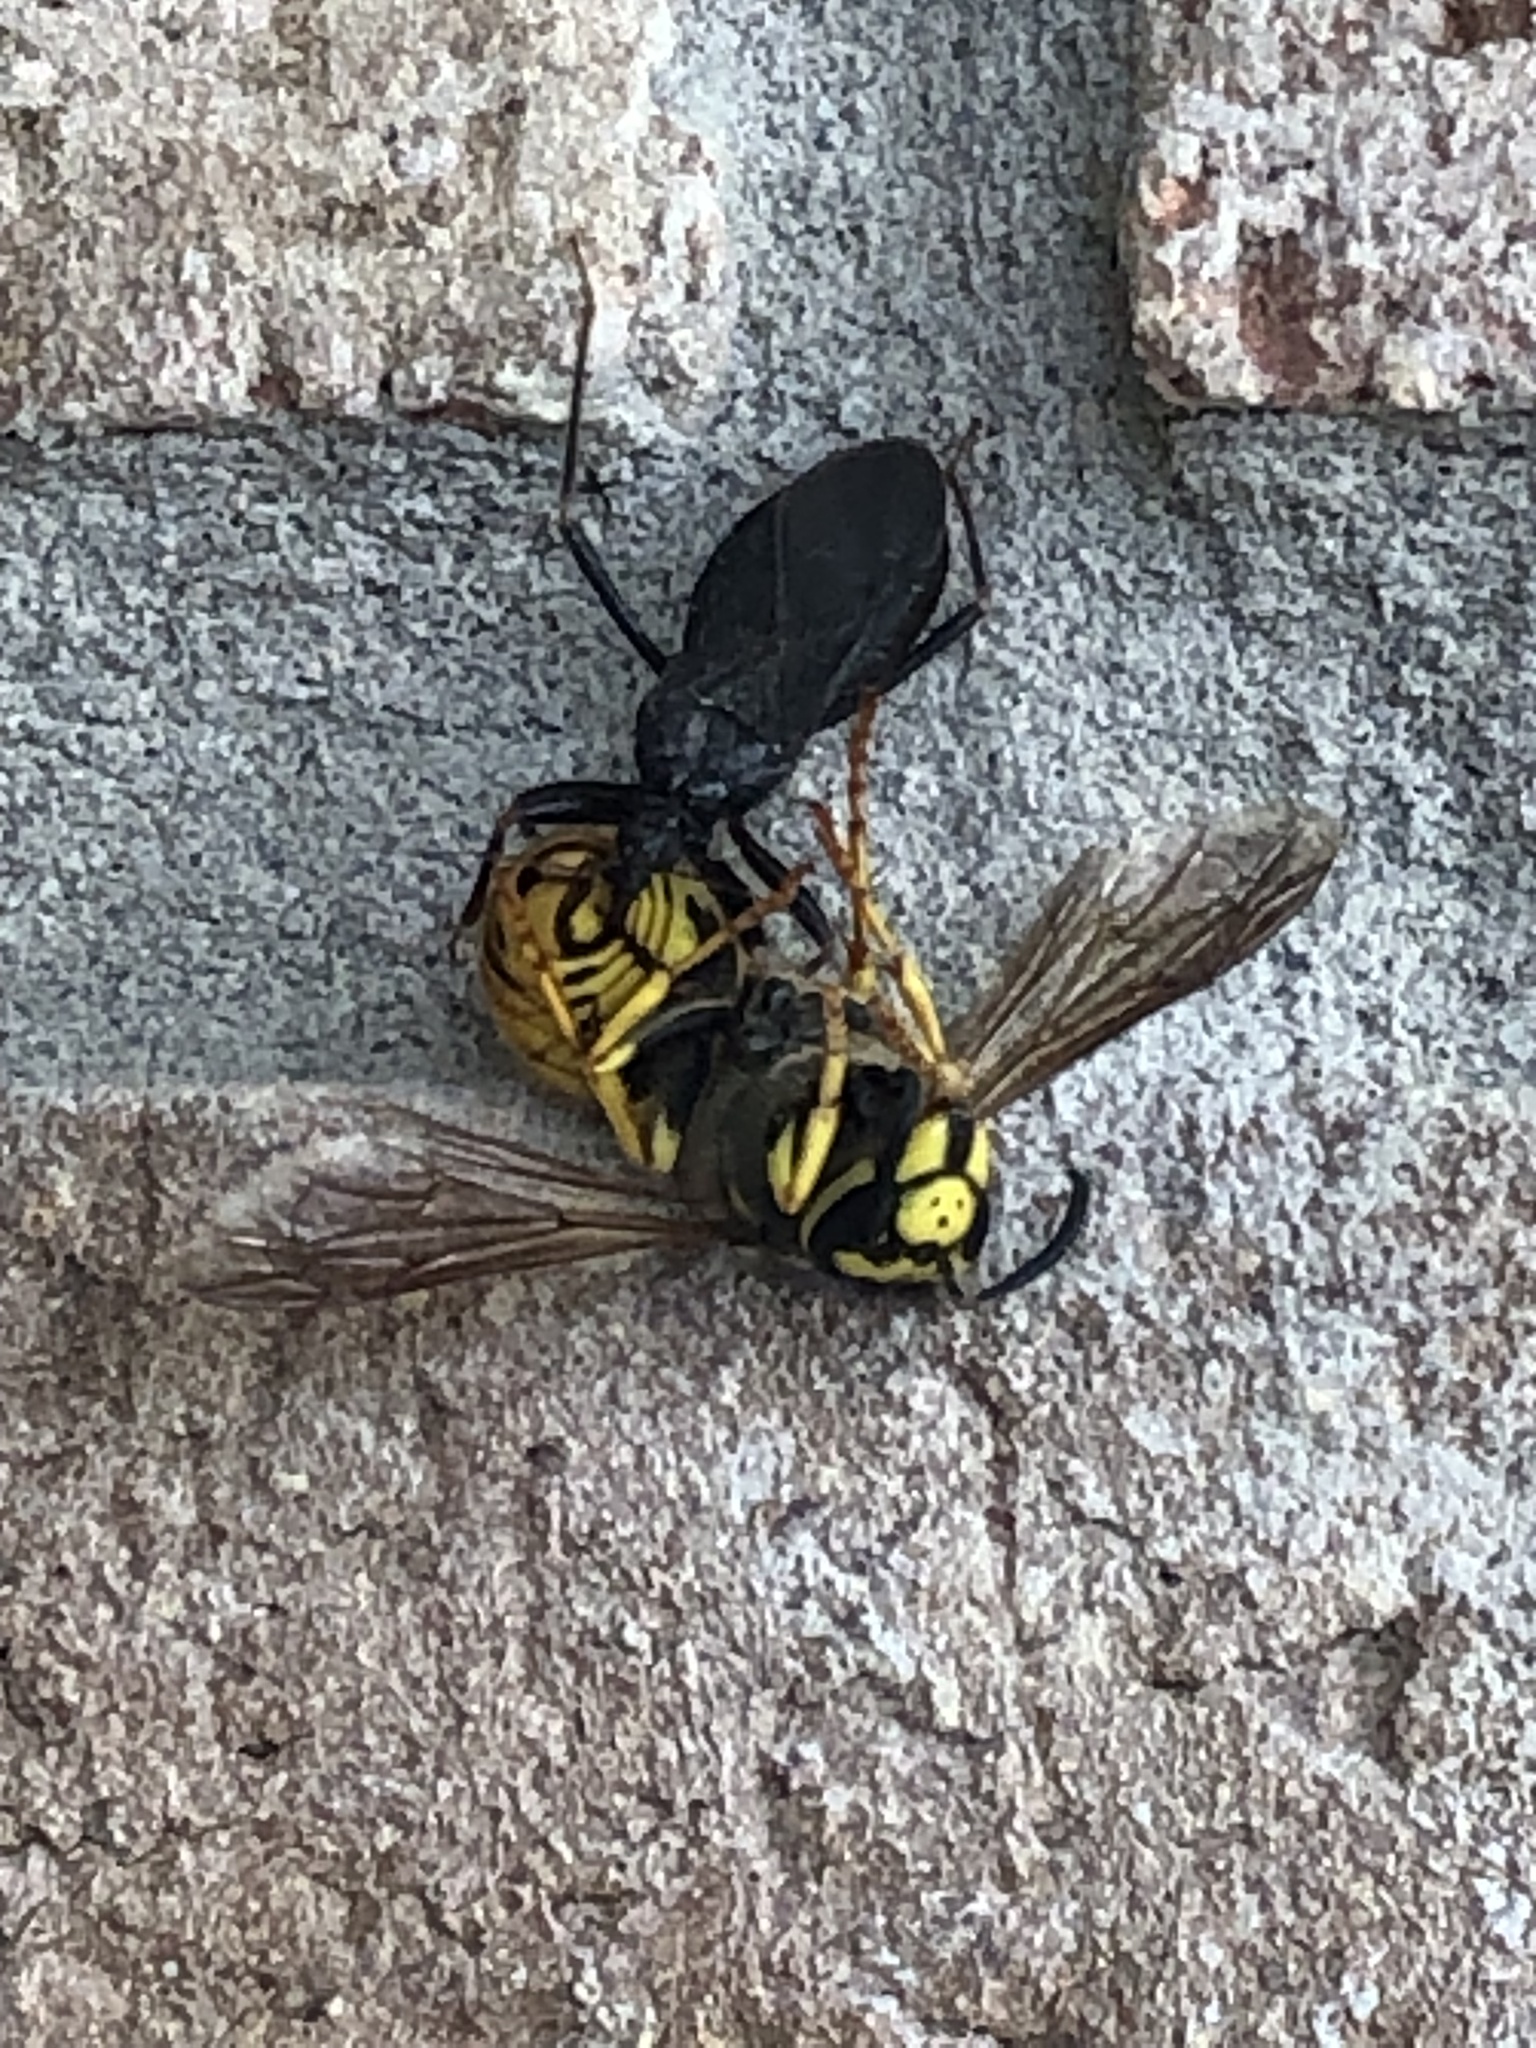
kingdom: Animalia
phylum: Arthropoda
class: Insecta
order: Hymenoptera
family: Vespidae
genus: Vespula
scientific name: Vespula germanica
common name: German wasp
